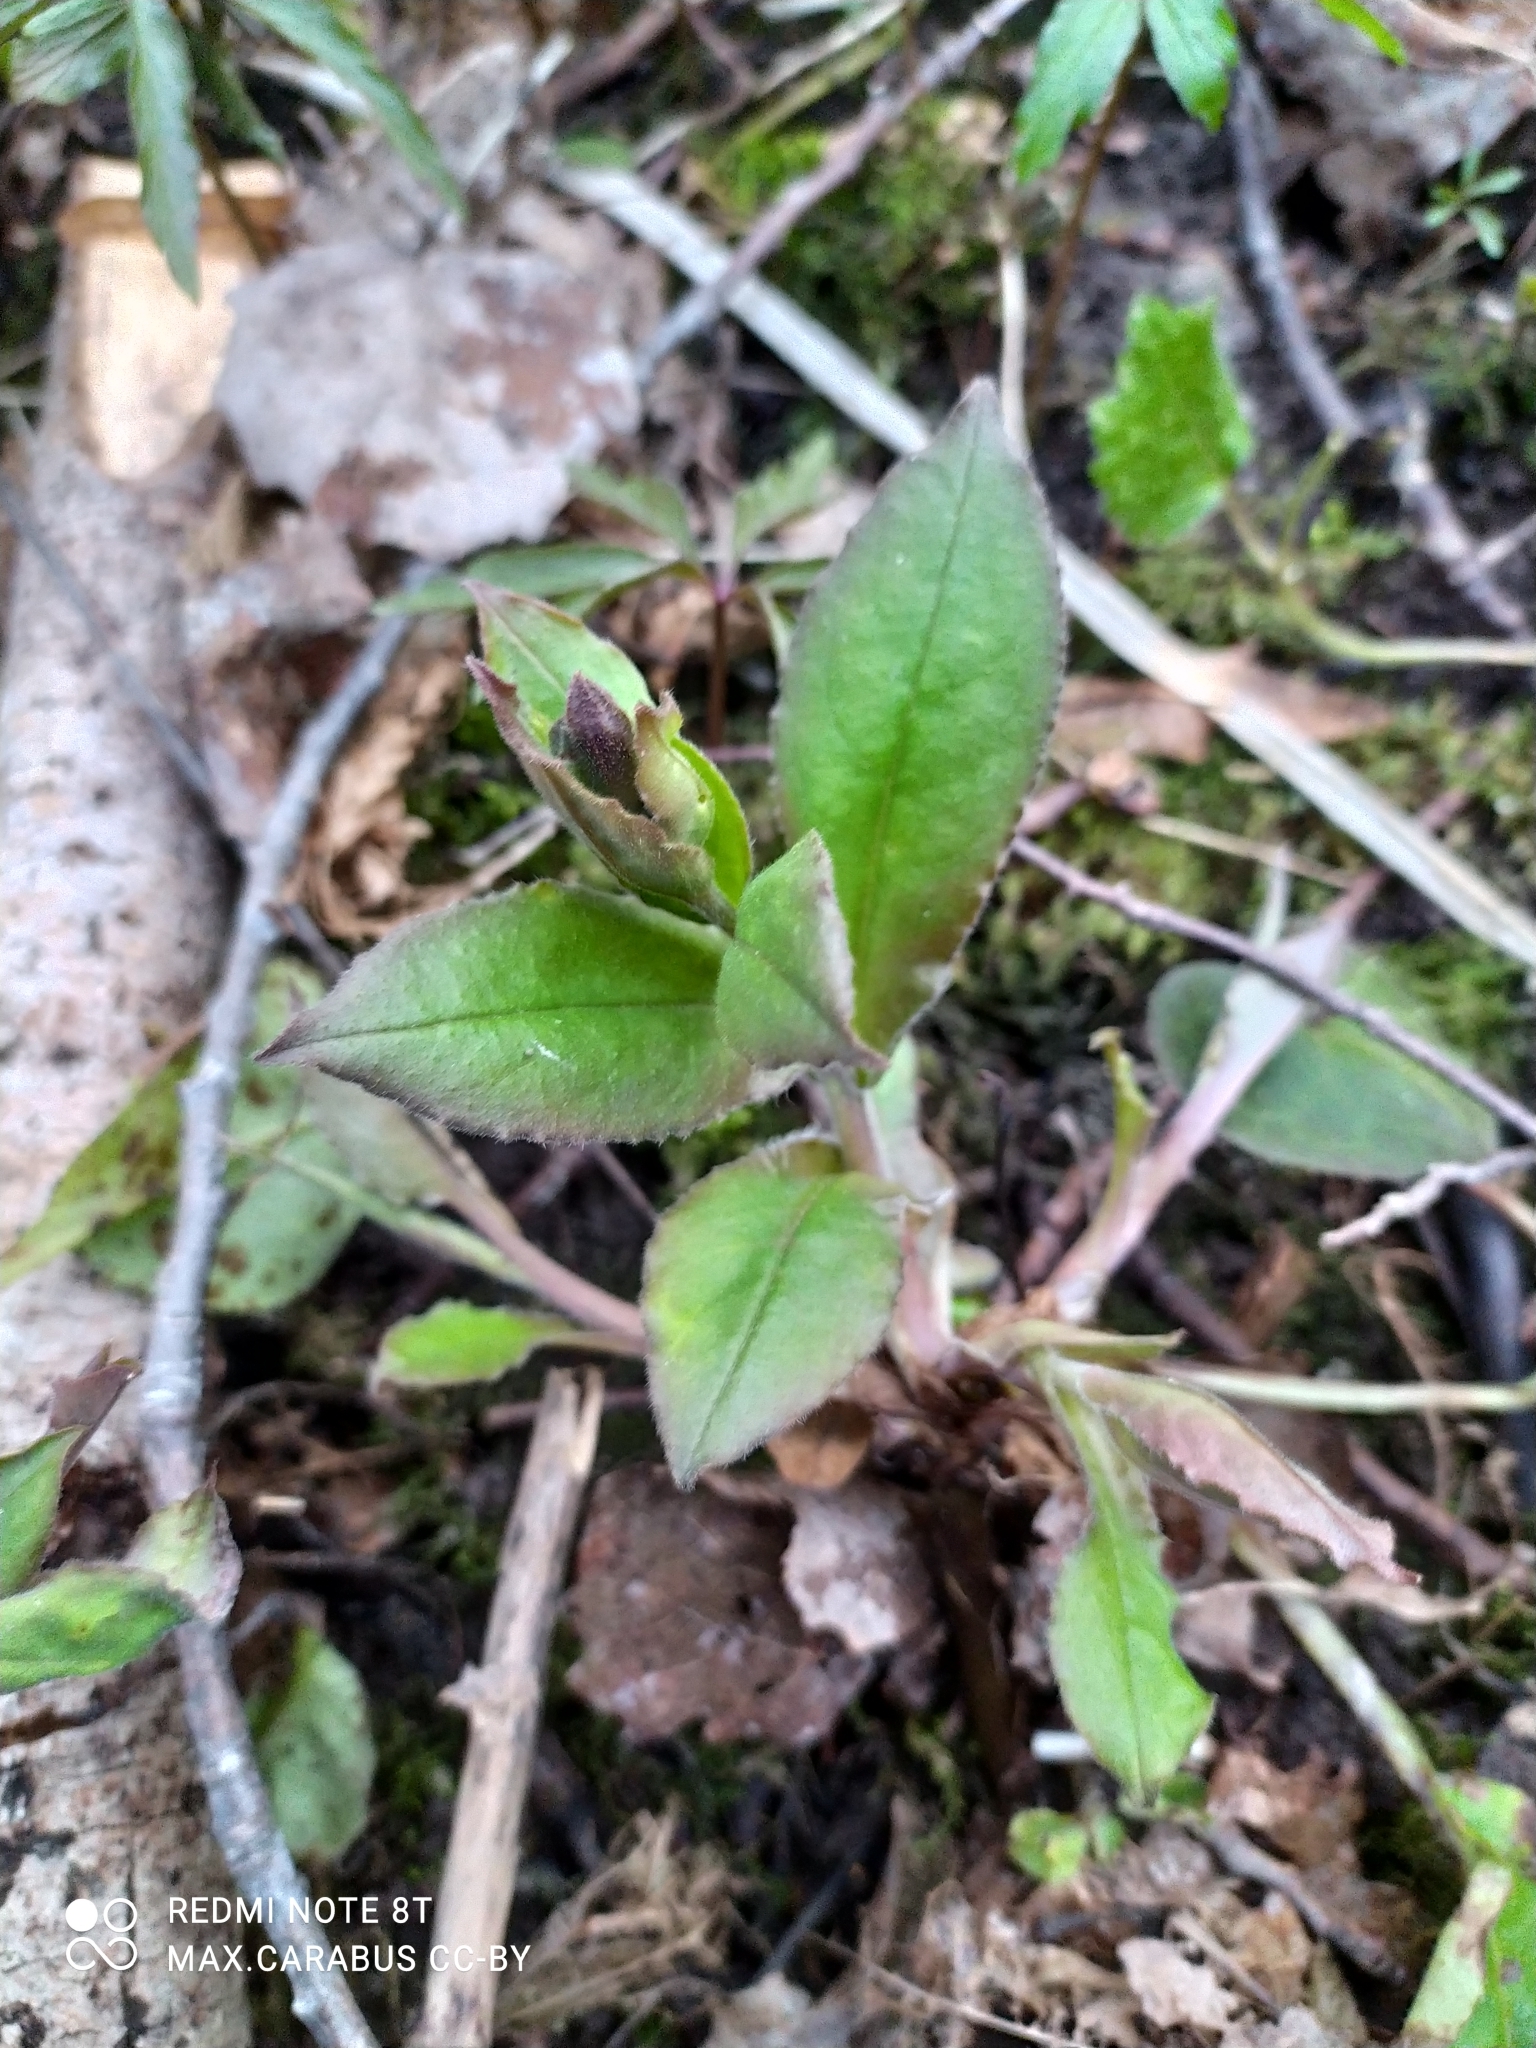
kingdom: Plantae
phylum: Tracheophyta
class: Magnoliopsida
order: Boraginales
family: Boraginaceae
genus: Pulmonaria
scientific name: Pulmonaria obscura
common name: Suffolk lungwort
